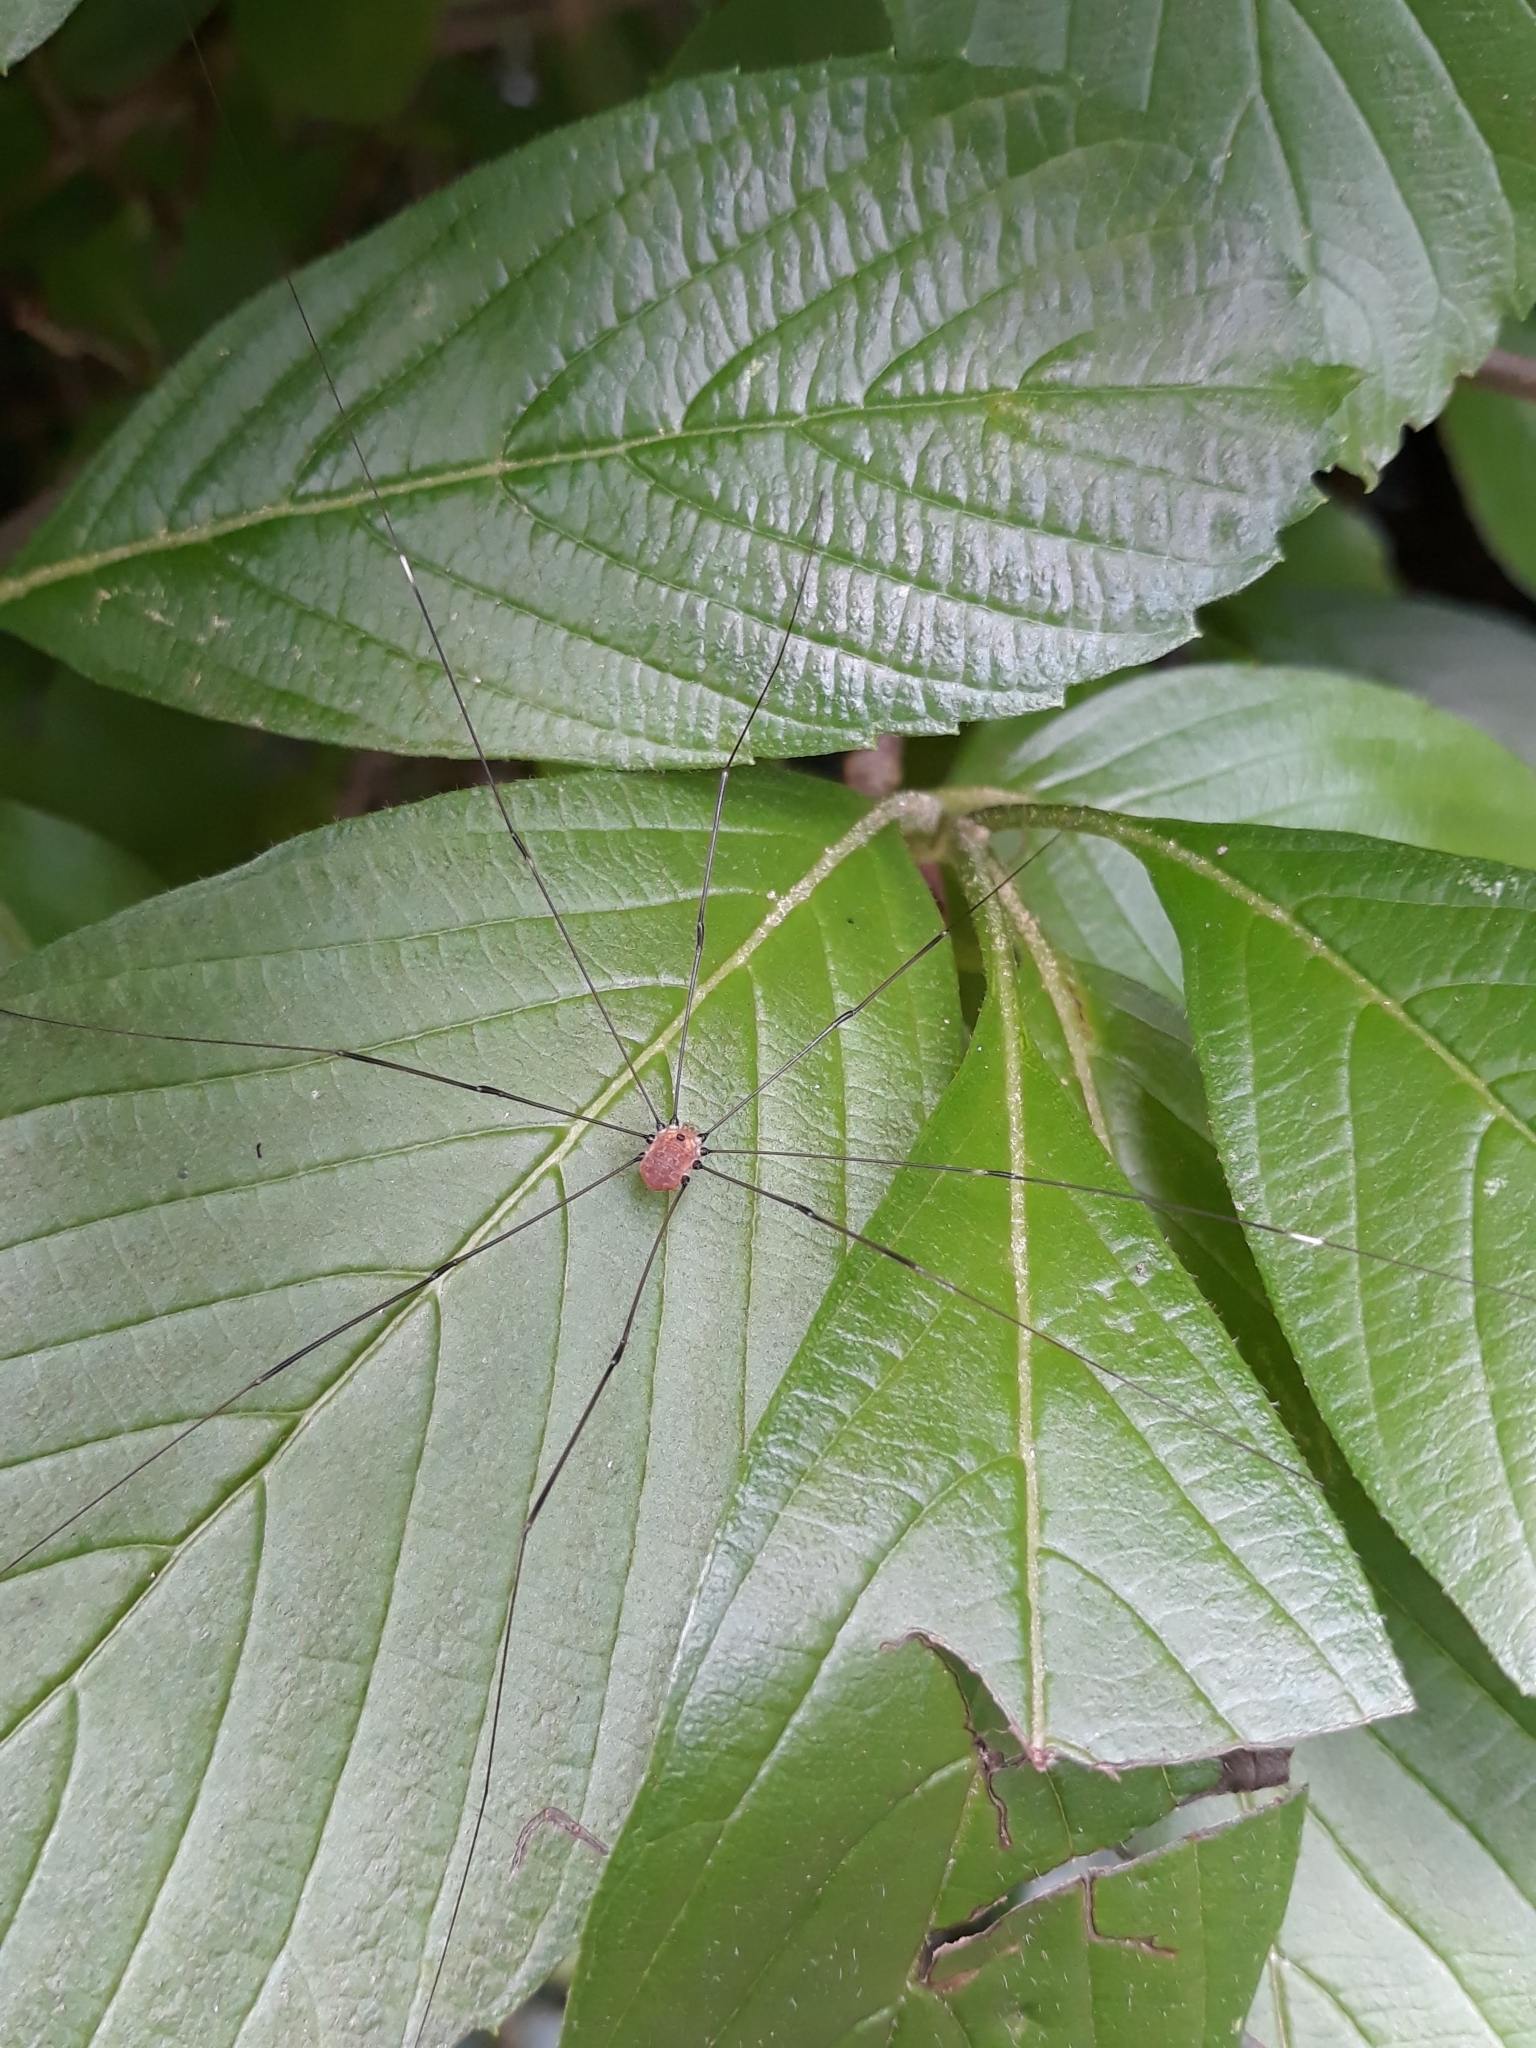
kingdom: Animalia
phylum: Arthropoda
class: Arachnida
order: Opiliones
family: Sclerosomatidae
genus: Leiobunum
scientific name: Leiobunum aldrichi
